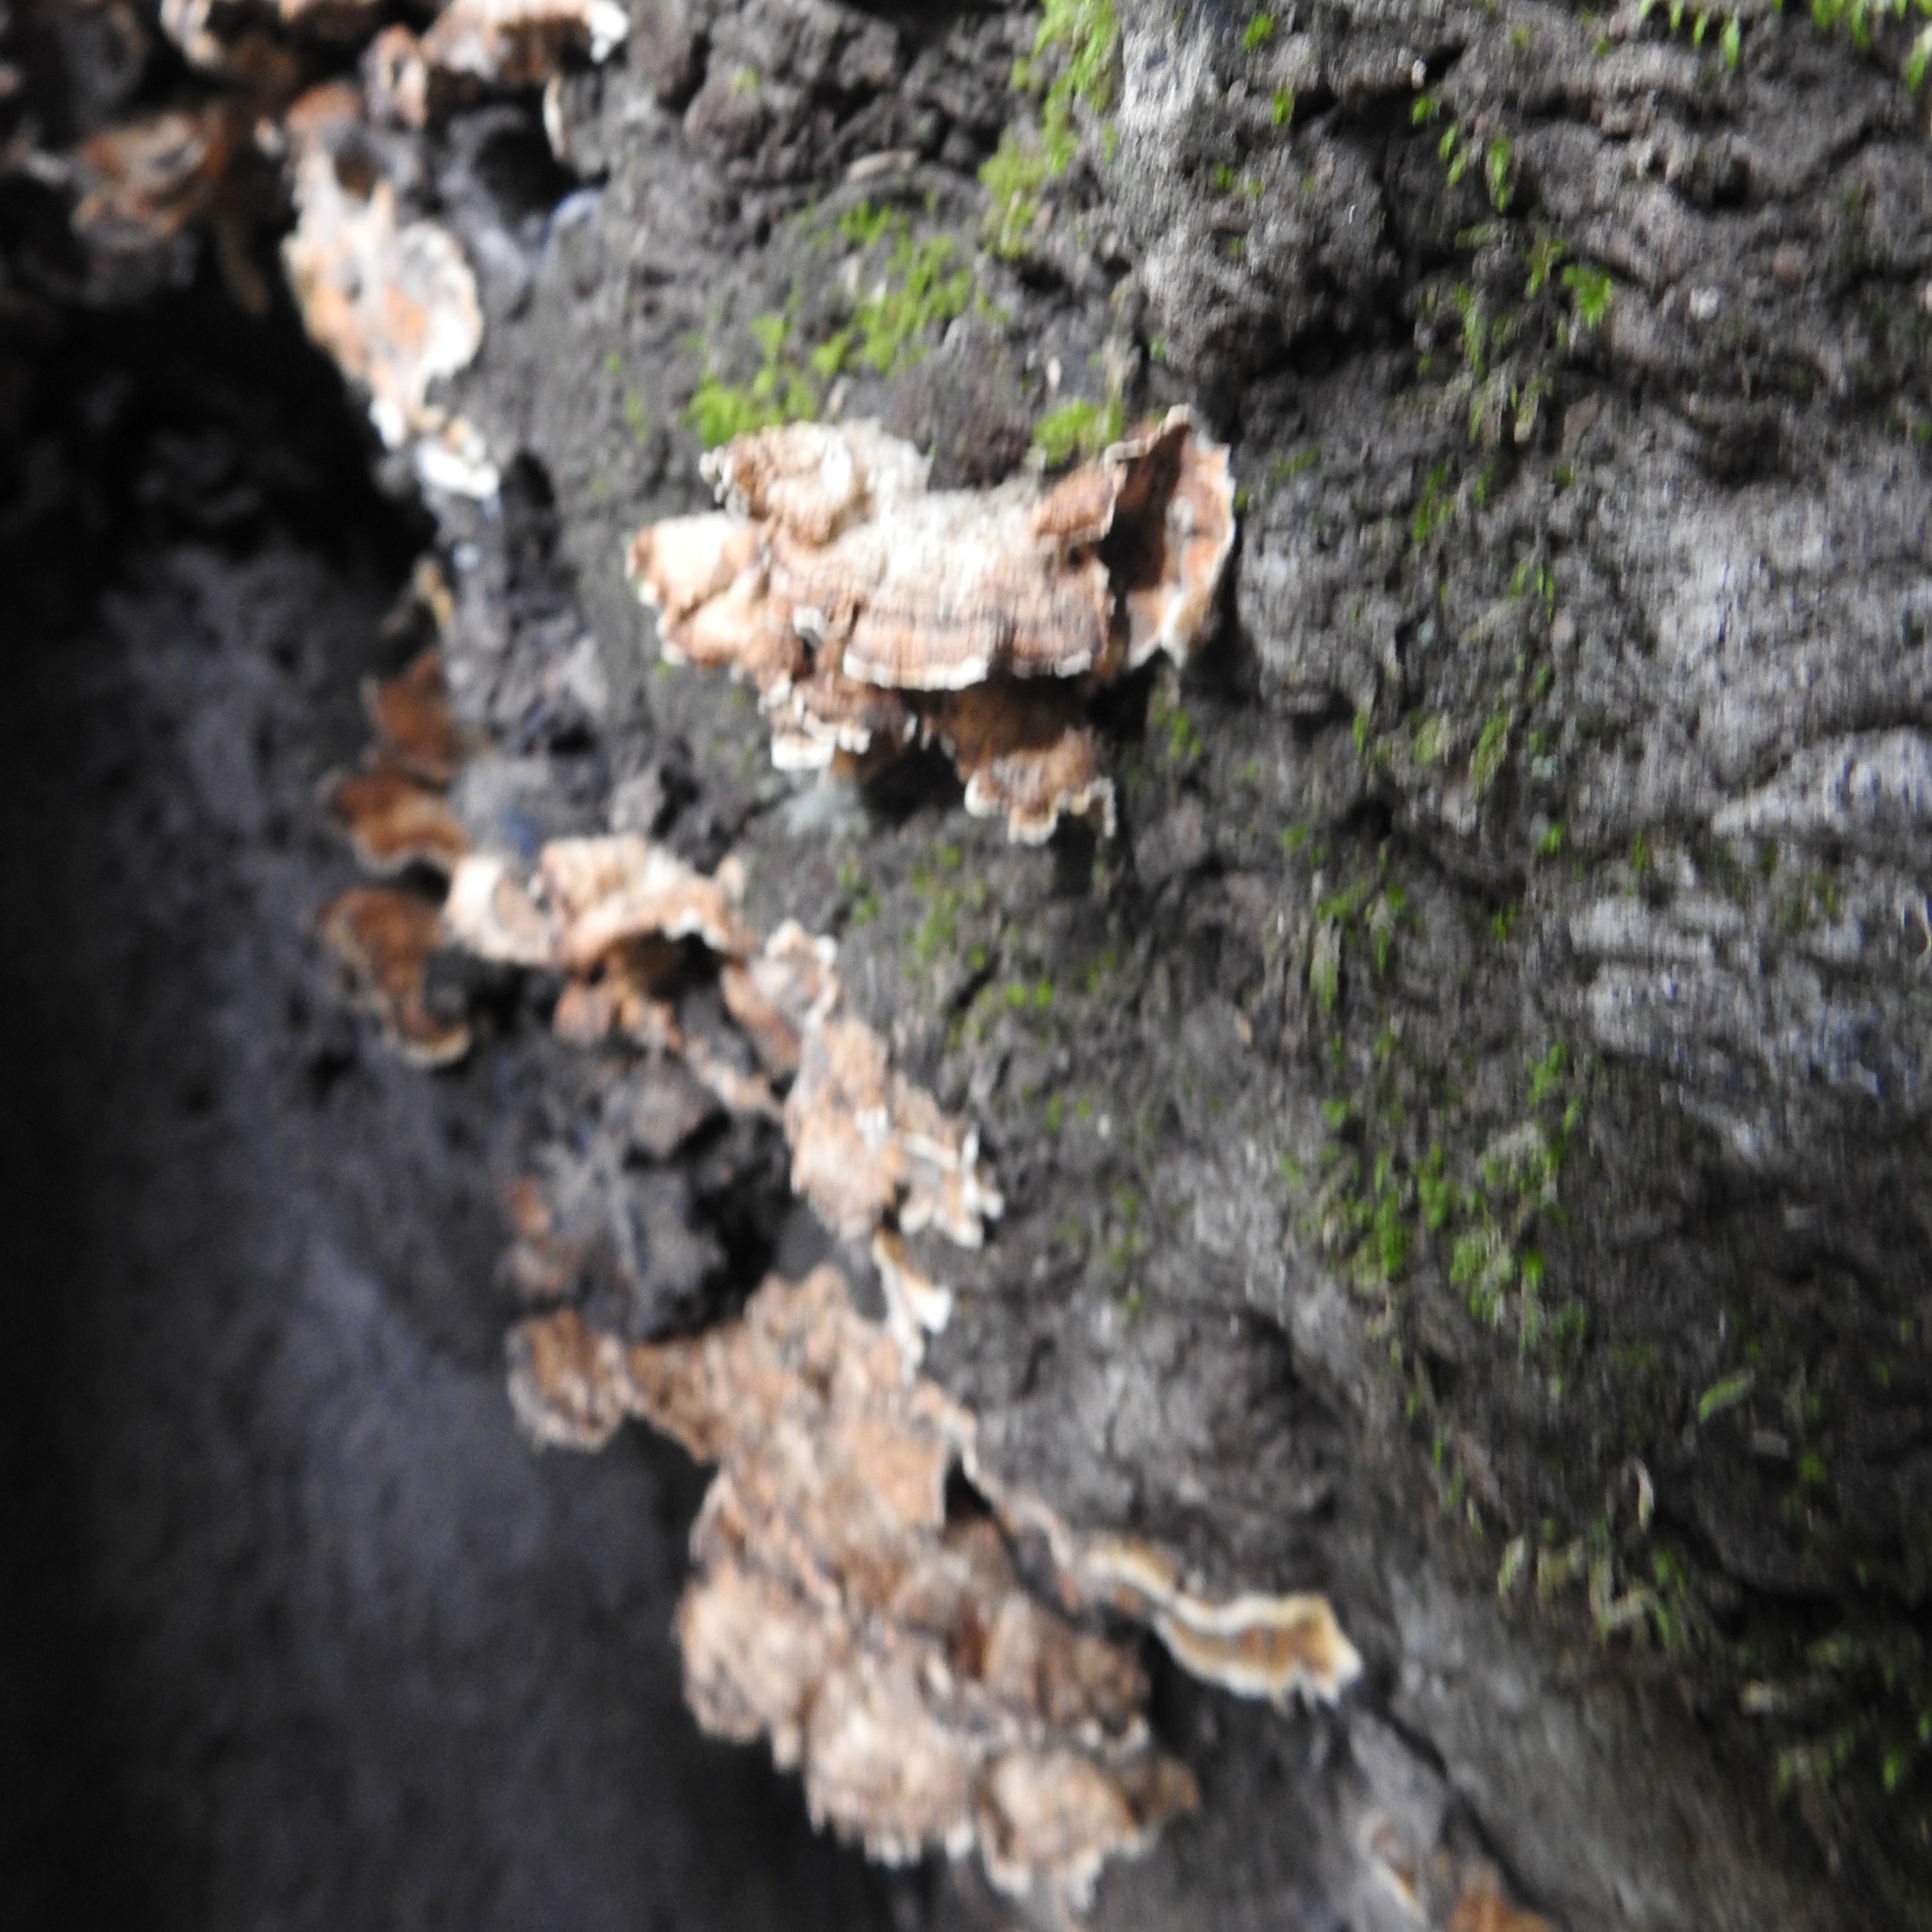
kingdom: Fungi
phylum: Basidiomycota
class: Agaricomycetes
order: Russulales
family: Stereaceae
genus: Stereum
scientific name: Stereum hirsutum
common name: Hairy curtain crust
